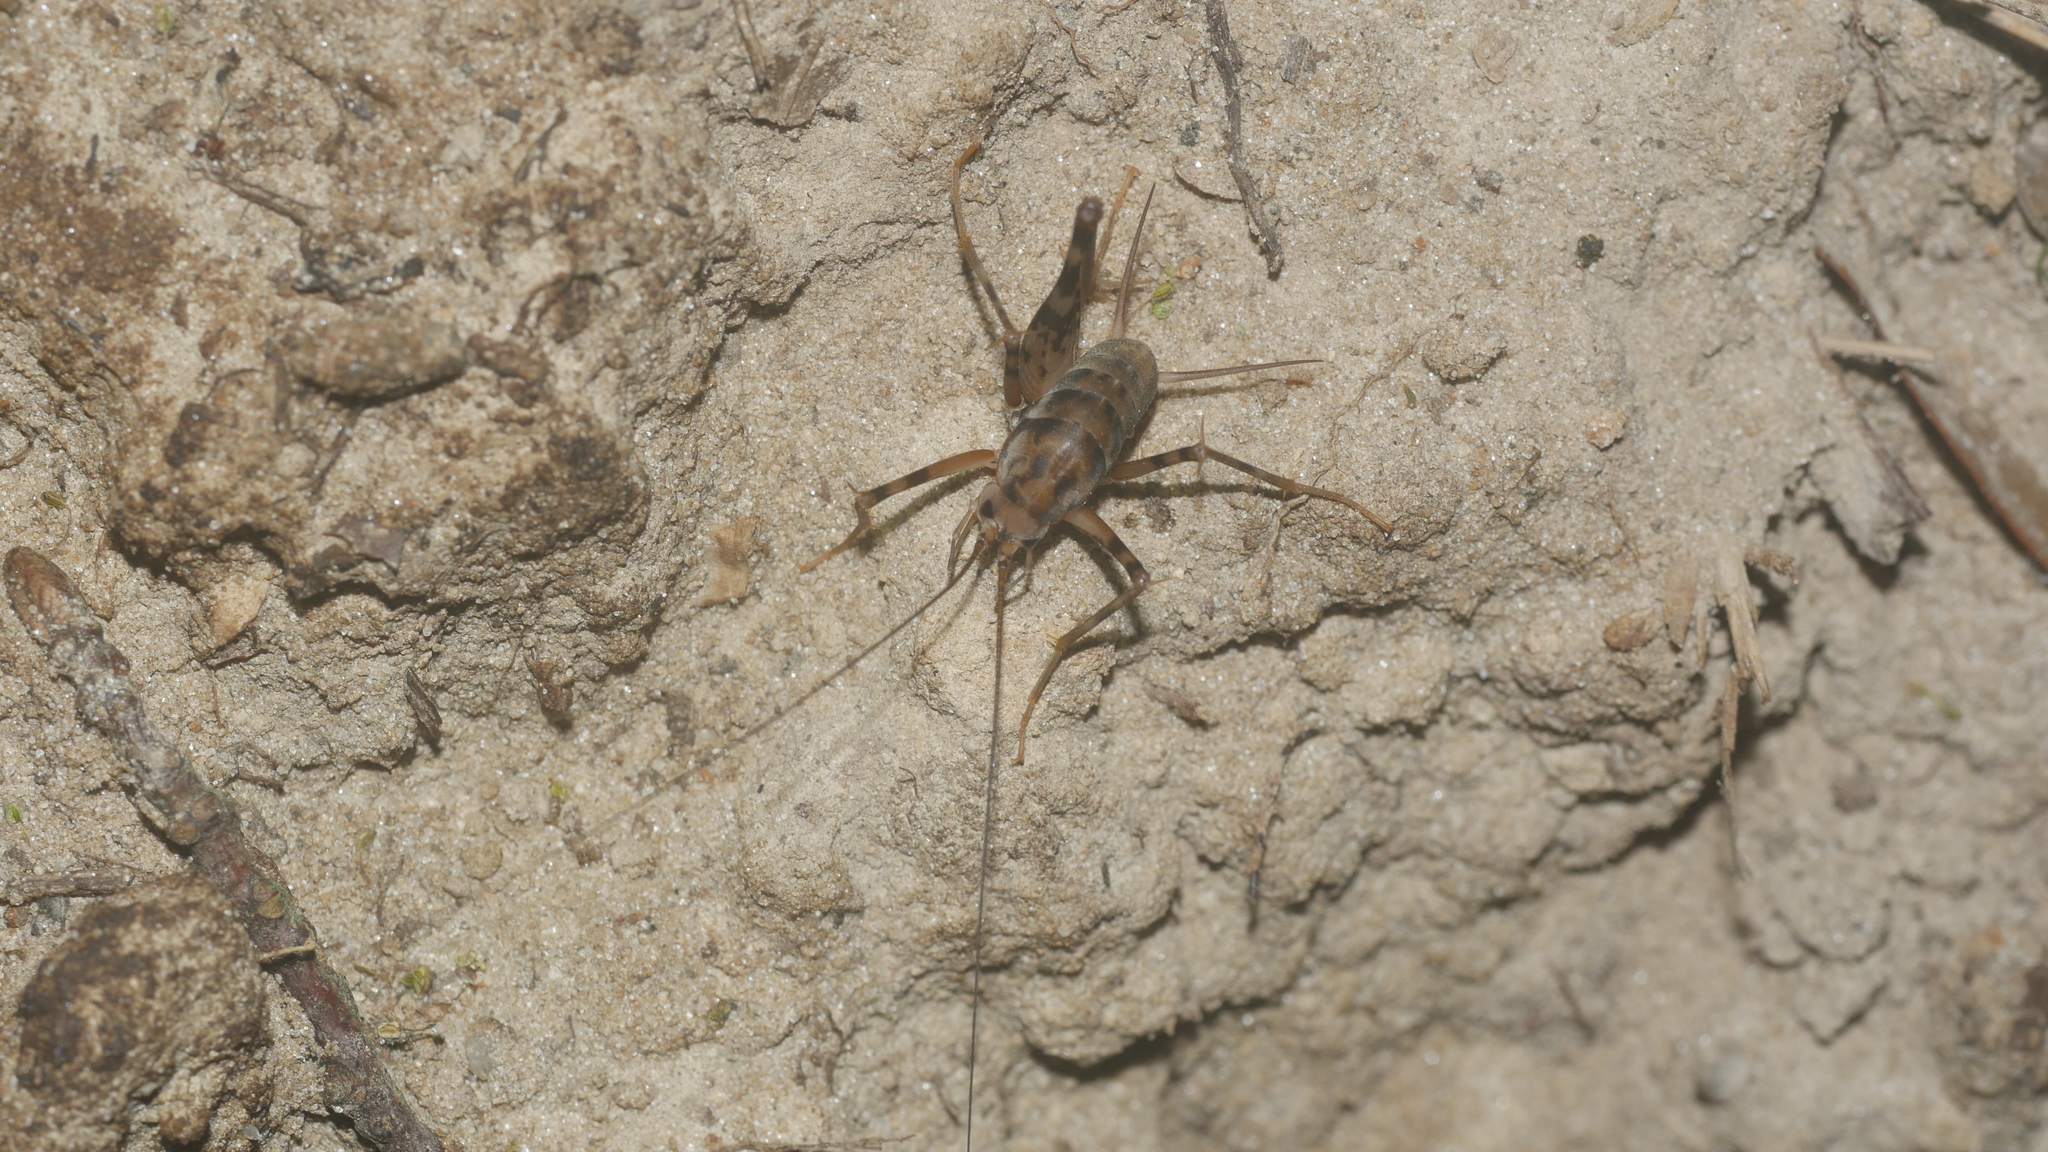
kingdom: Animalia
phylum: Arthropoda
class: Insecta
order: Orthoptera
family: Rhaphidophoridae
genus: Tachycines
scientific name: Tachycines asynamorus
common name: Greenhouse camel cricket
